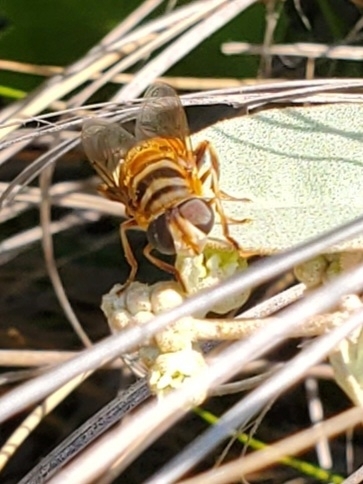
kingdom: Animalia
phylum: Arthropoda
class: Insecta
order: Diptera
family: Syrphidae
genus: Palpada
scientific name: Palpada vinetorum
